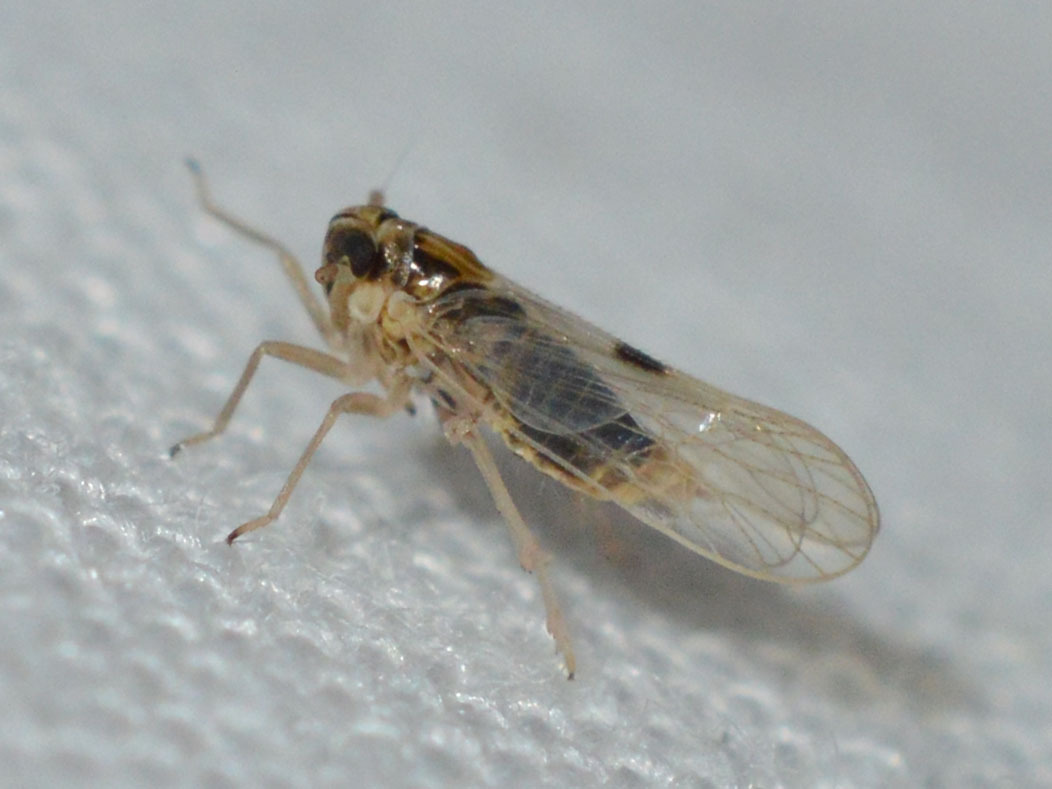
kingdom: Animalia
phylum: Arthropoda
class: Insecta
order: Hemiptera
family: Delphacidae
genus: Laodelphax
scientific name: Laodelphax striatellus
